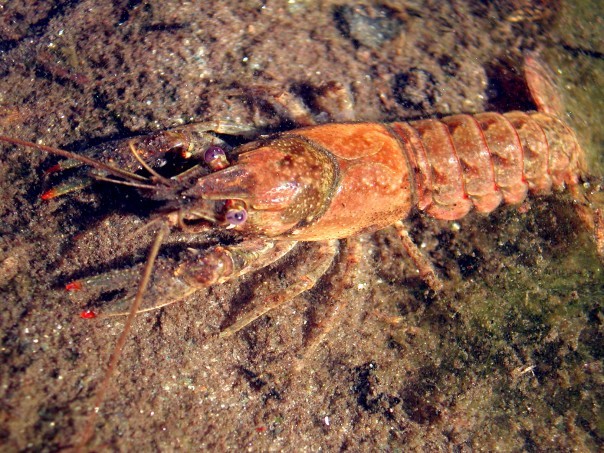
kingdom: Animalia
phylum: Arthropoda
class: Malacostraca
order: Decapoda
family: Cambaridae
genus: Faxonius
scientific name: Faxonius virilis
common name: Virile crayfish
